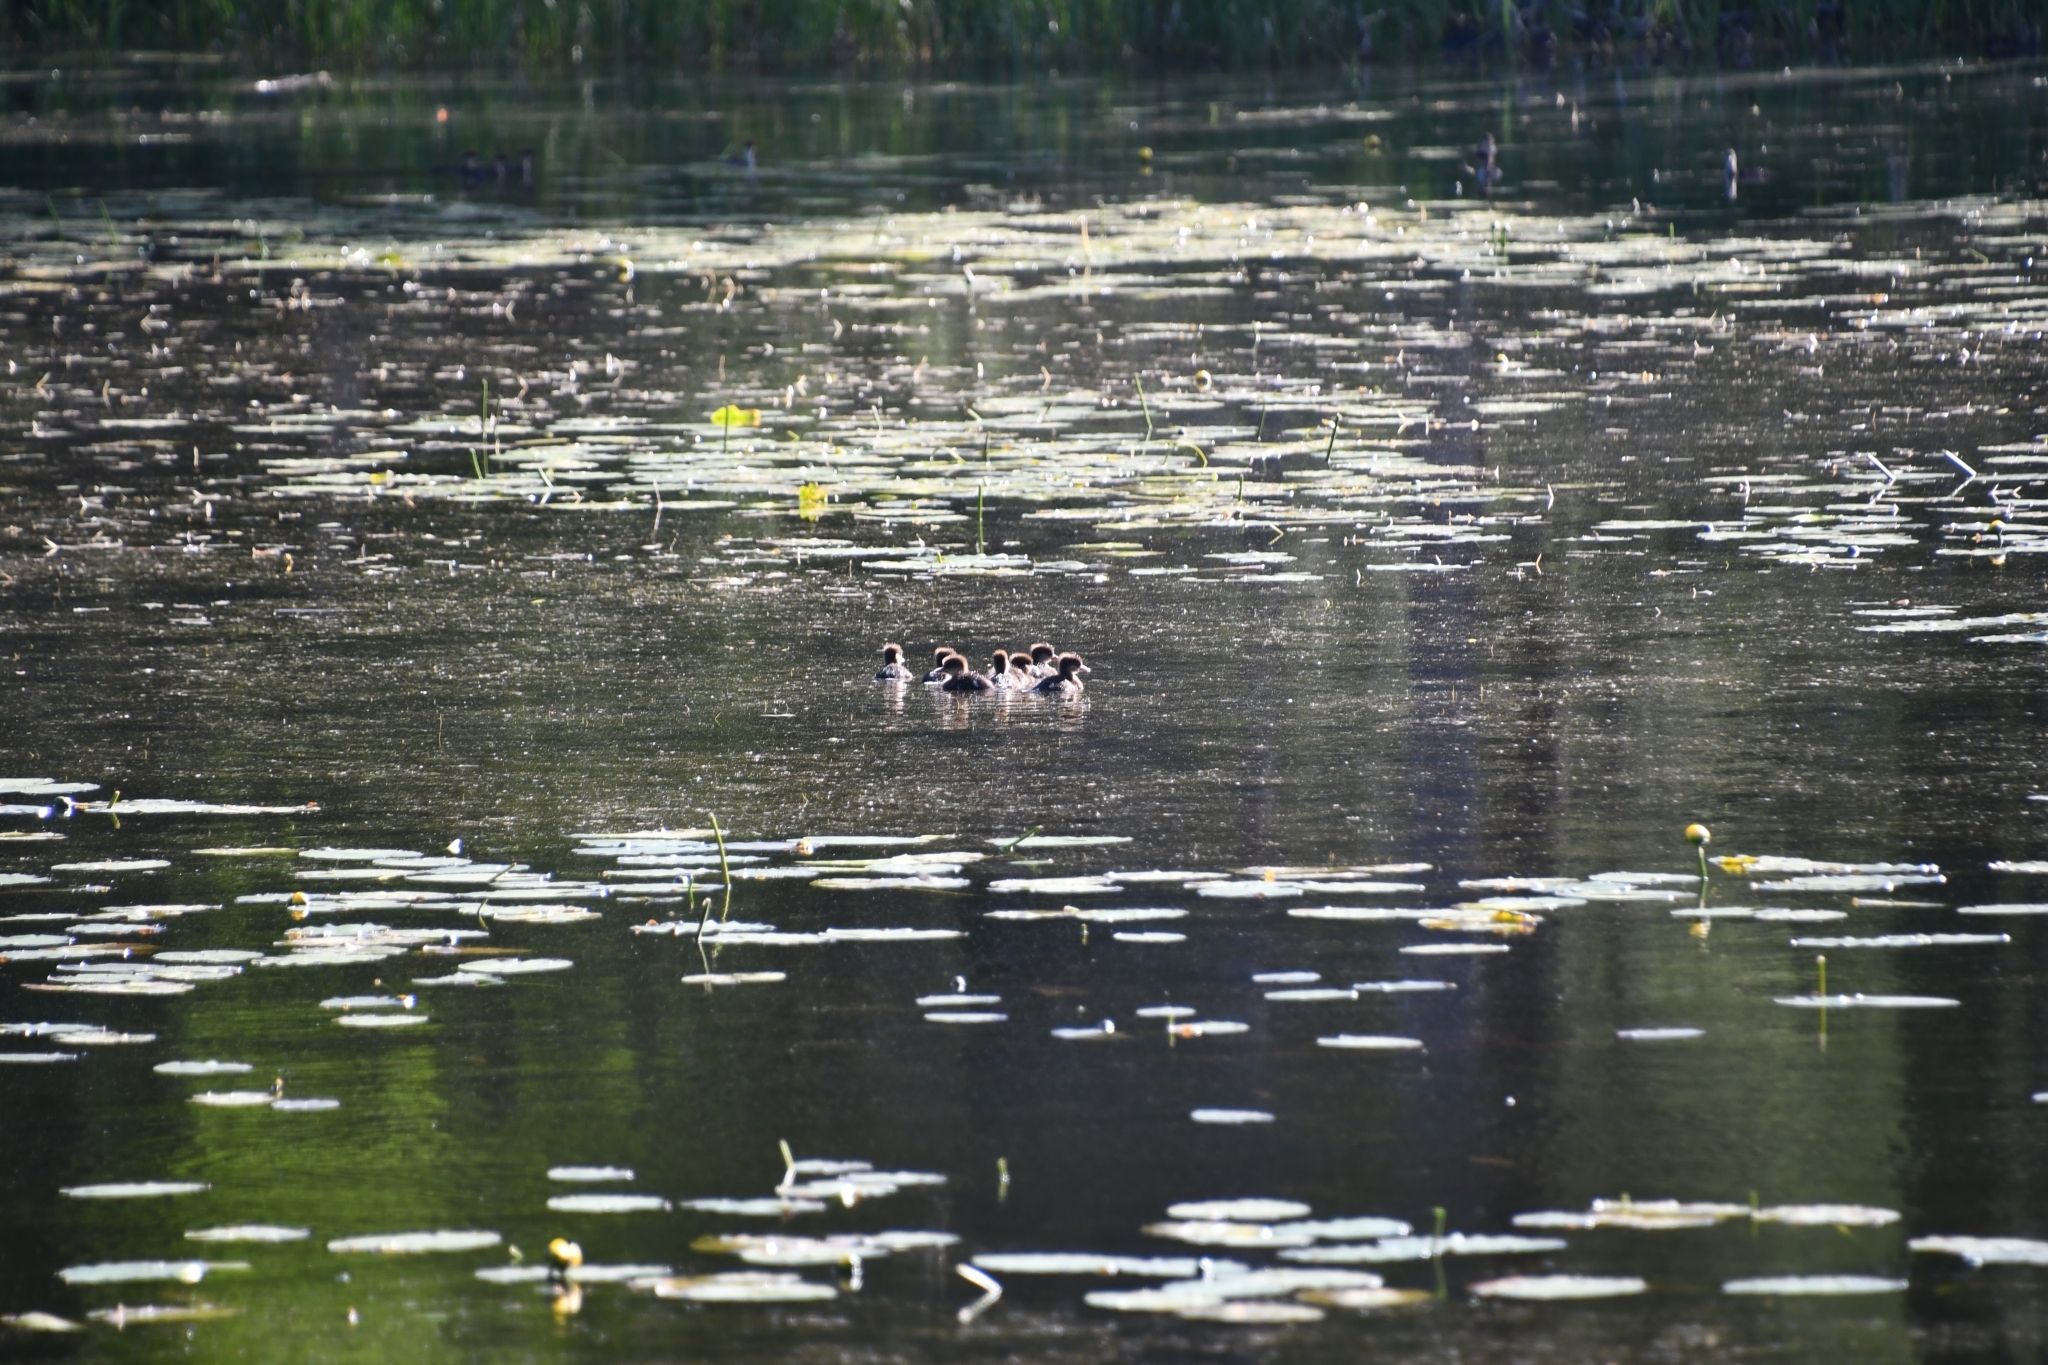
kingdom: Animalia
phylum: Chordata
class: Aves
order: Anseriformes
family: Anatidae
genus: Lophodytes
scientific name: Lophodytes cucullatus
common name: Hooded merganser
